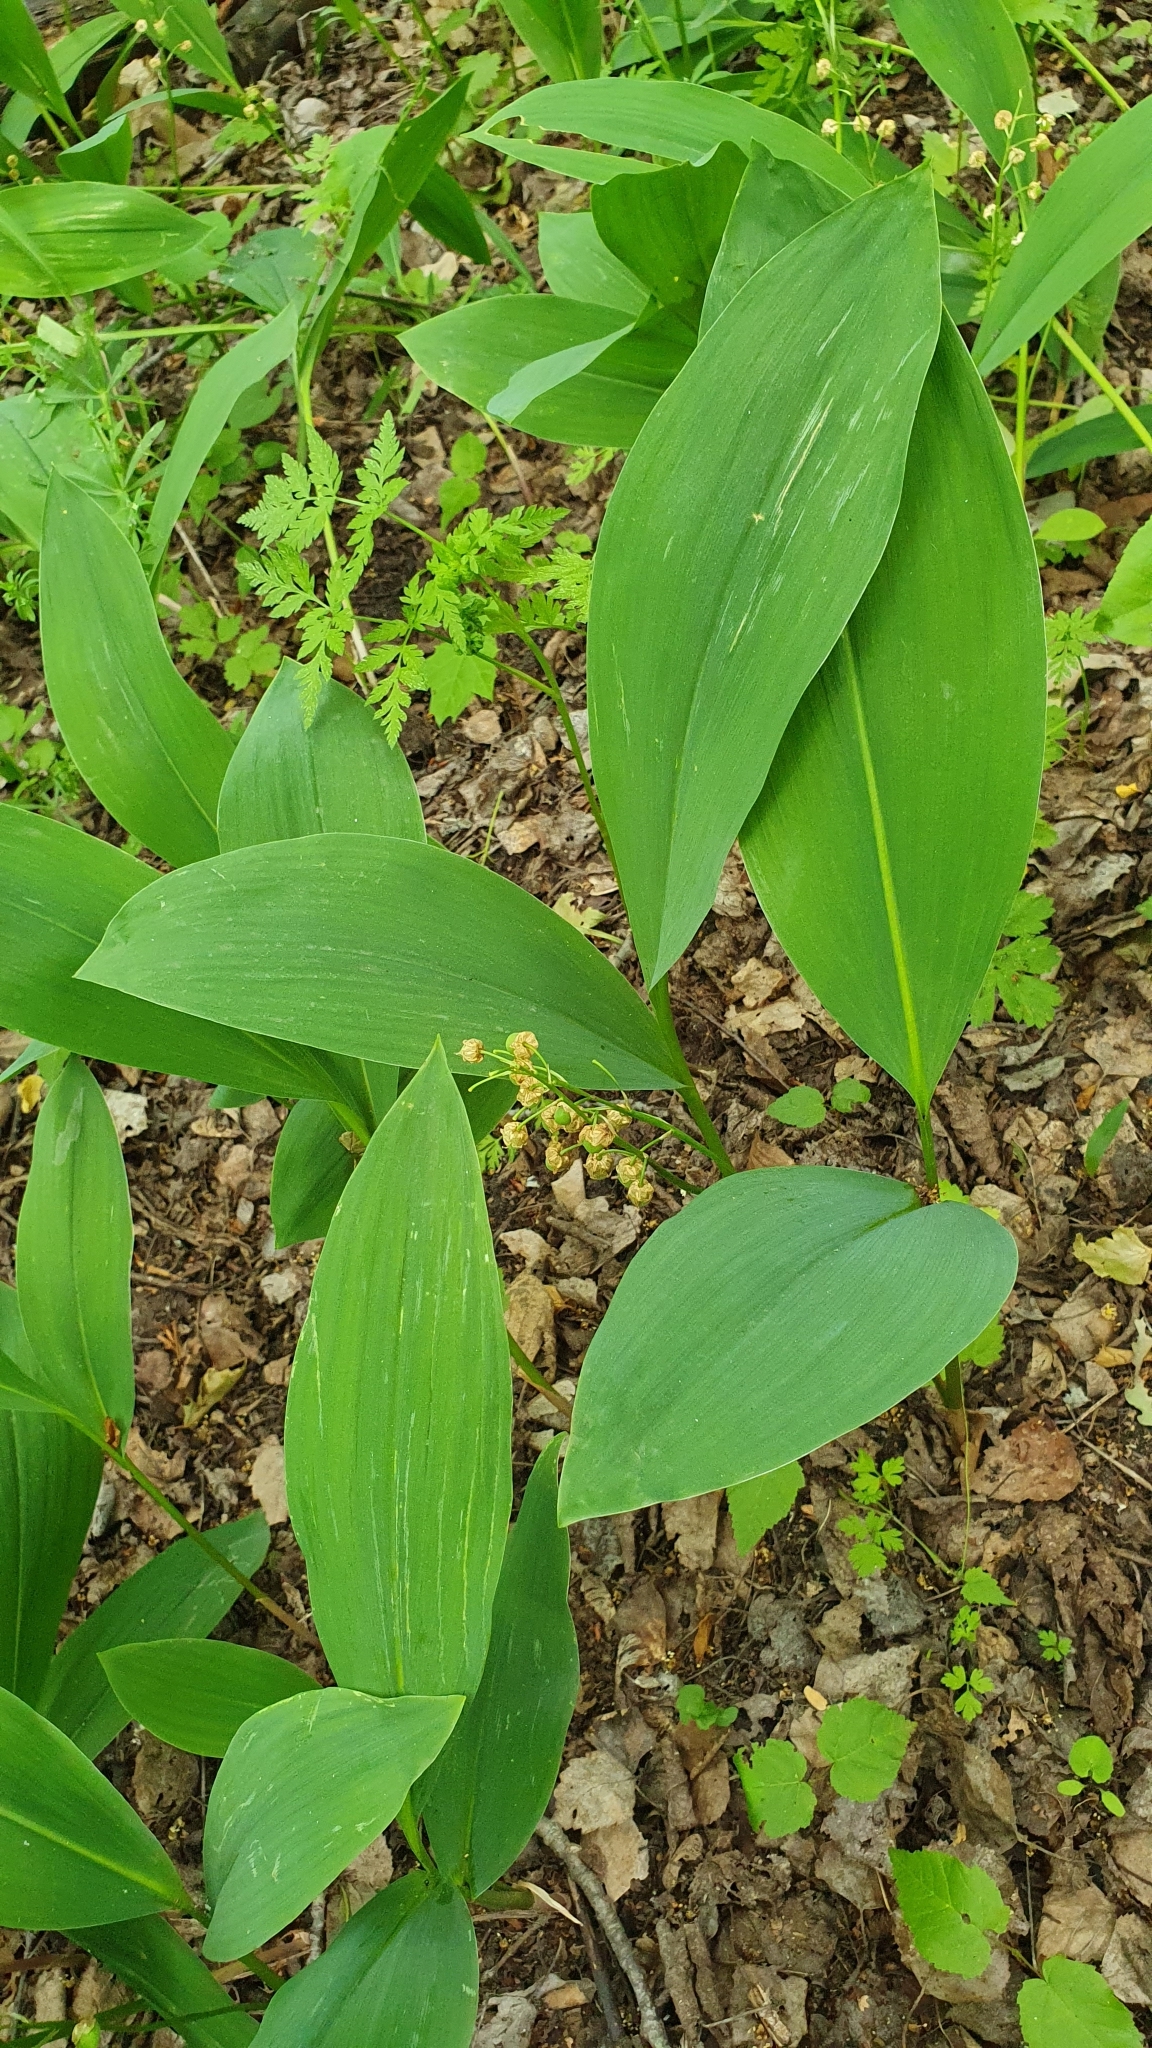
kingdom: Plantae
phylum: Tracheophyta
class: Liliopsida
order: Asparagales
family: Asparagaceae
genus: Convallaria
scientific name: Convallaria majalis
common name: Lily-of-the-valley
